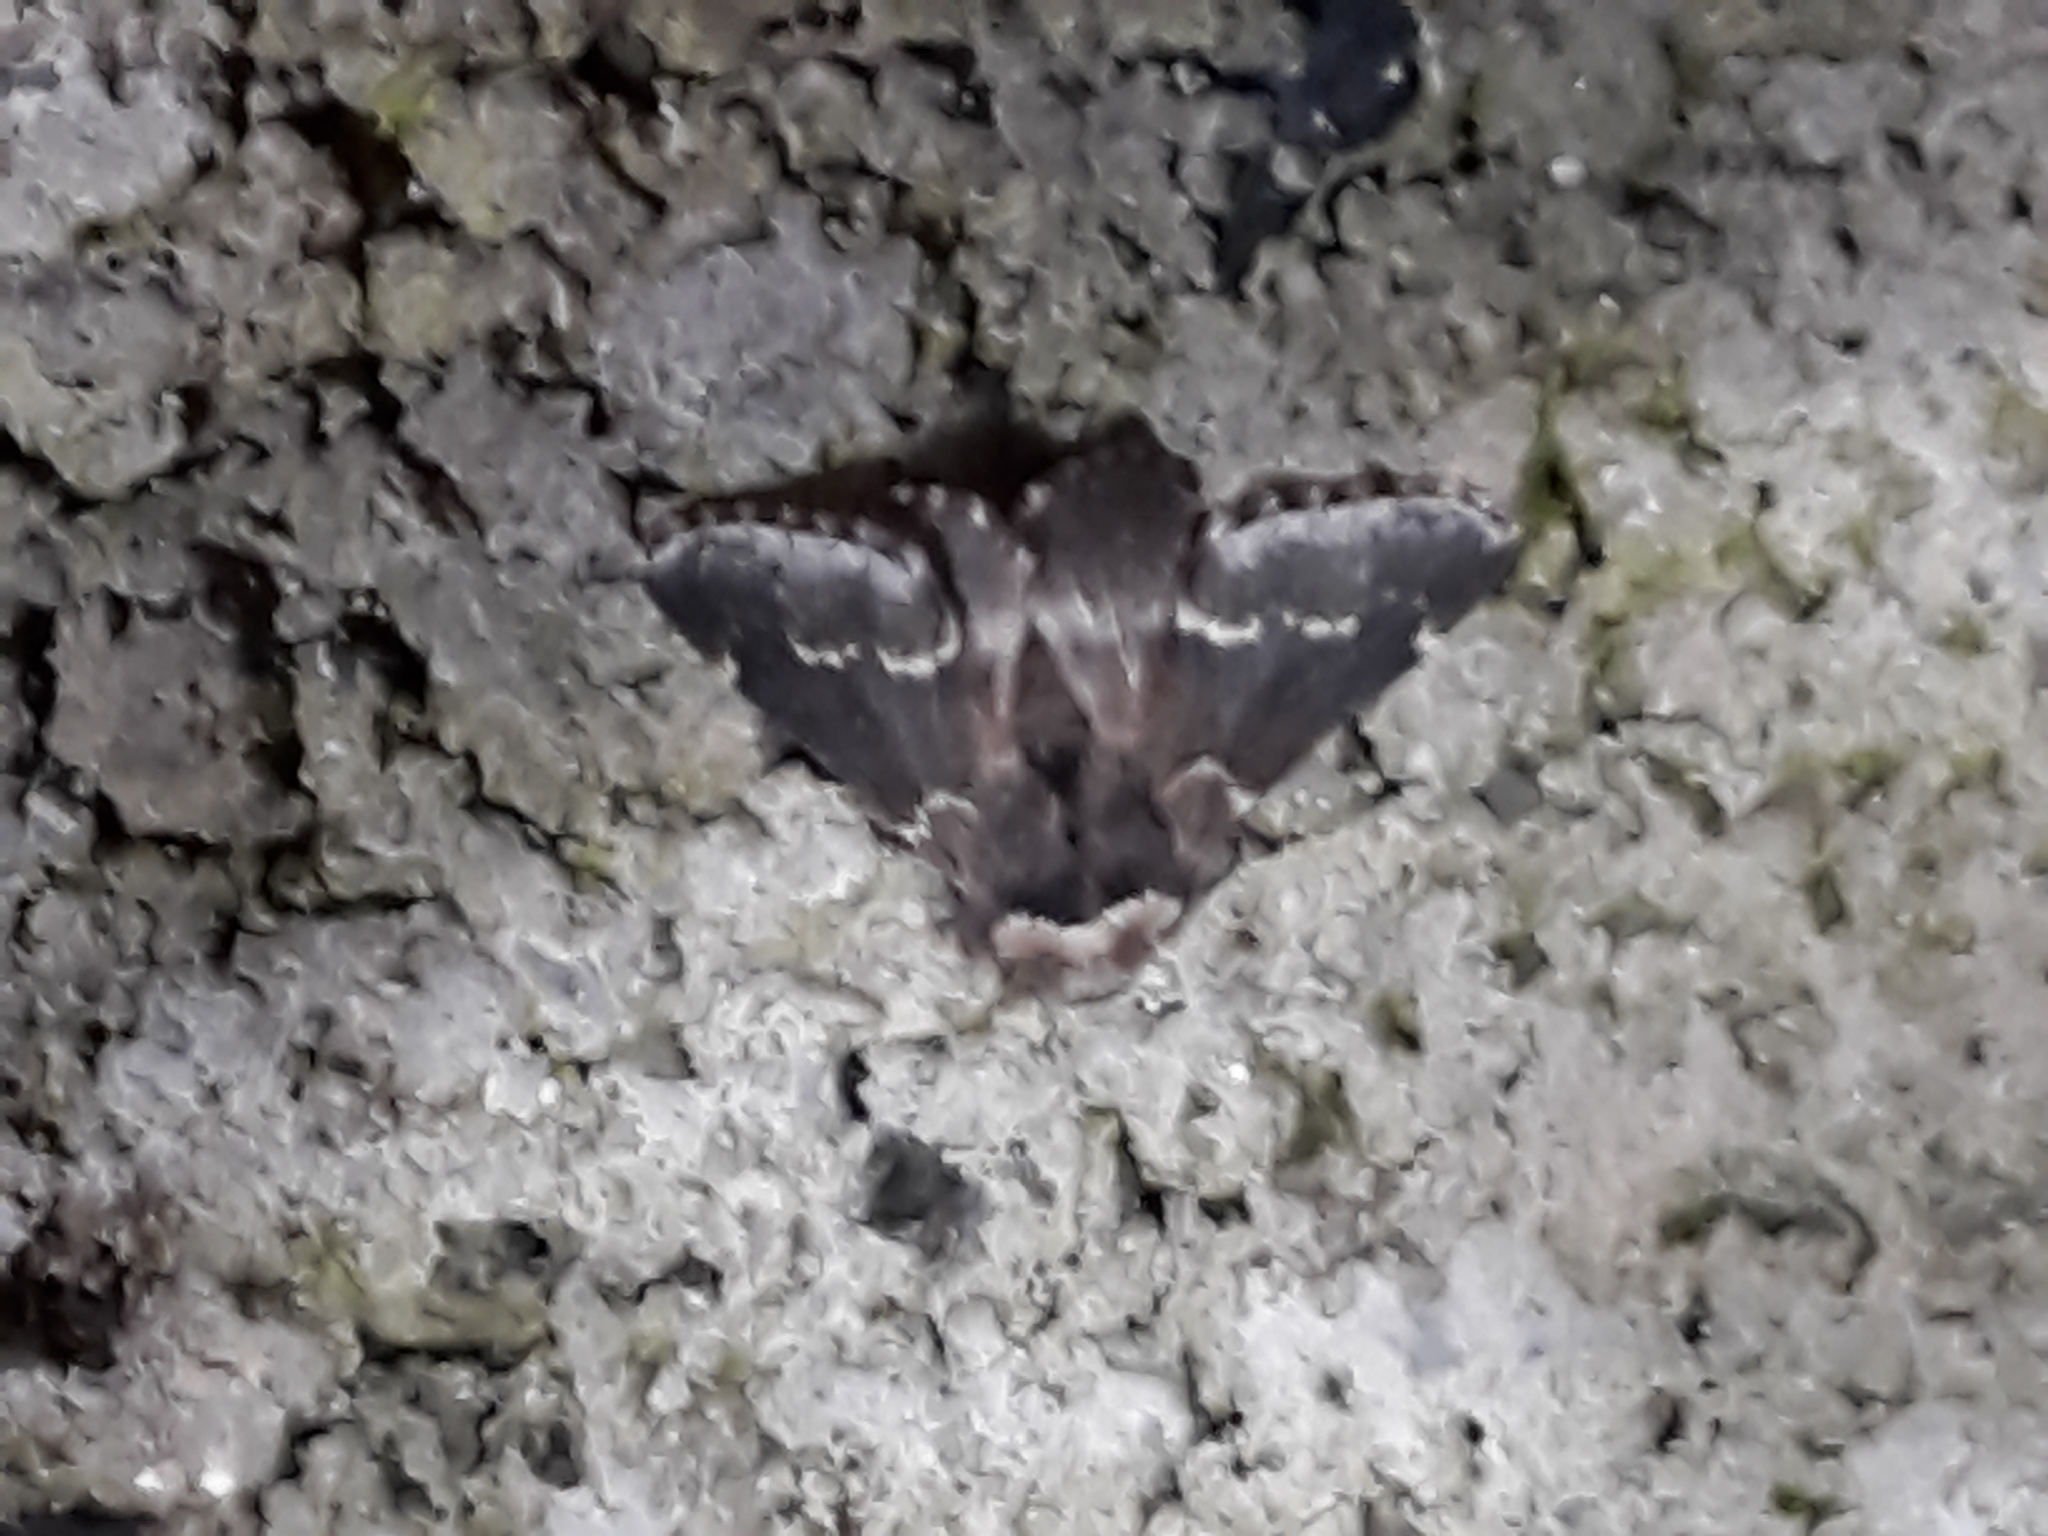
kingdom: Animalia
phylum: Arthropoda
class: Insecta
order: Lepidoptera
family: Lasiocampidae
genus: Poecilocampa
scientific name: Poecilocampa populi
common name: December moth
